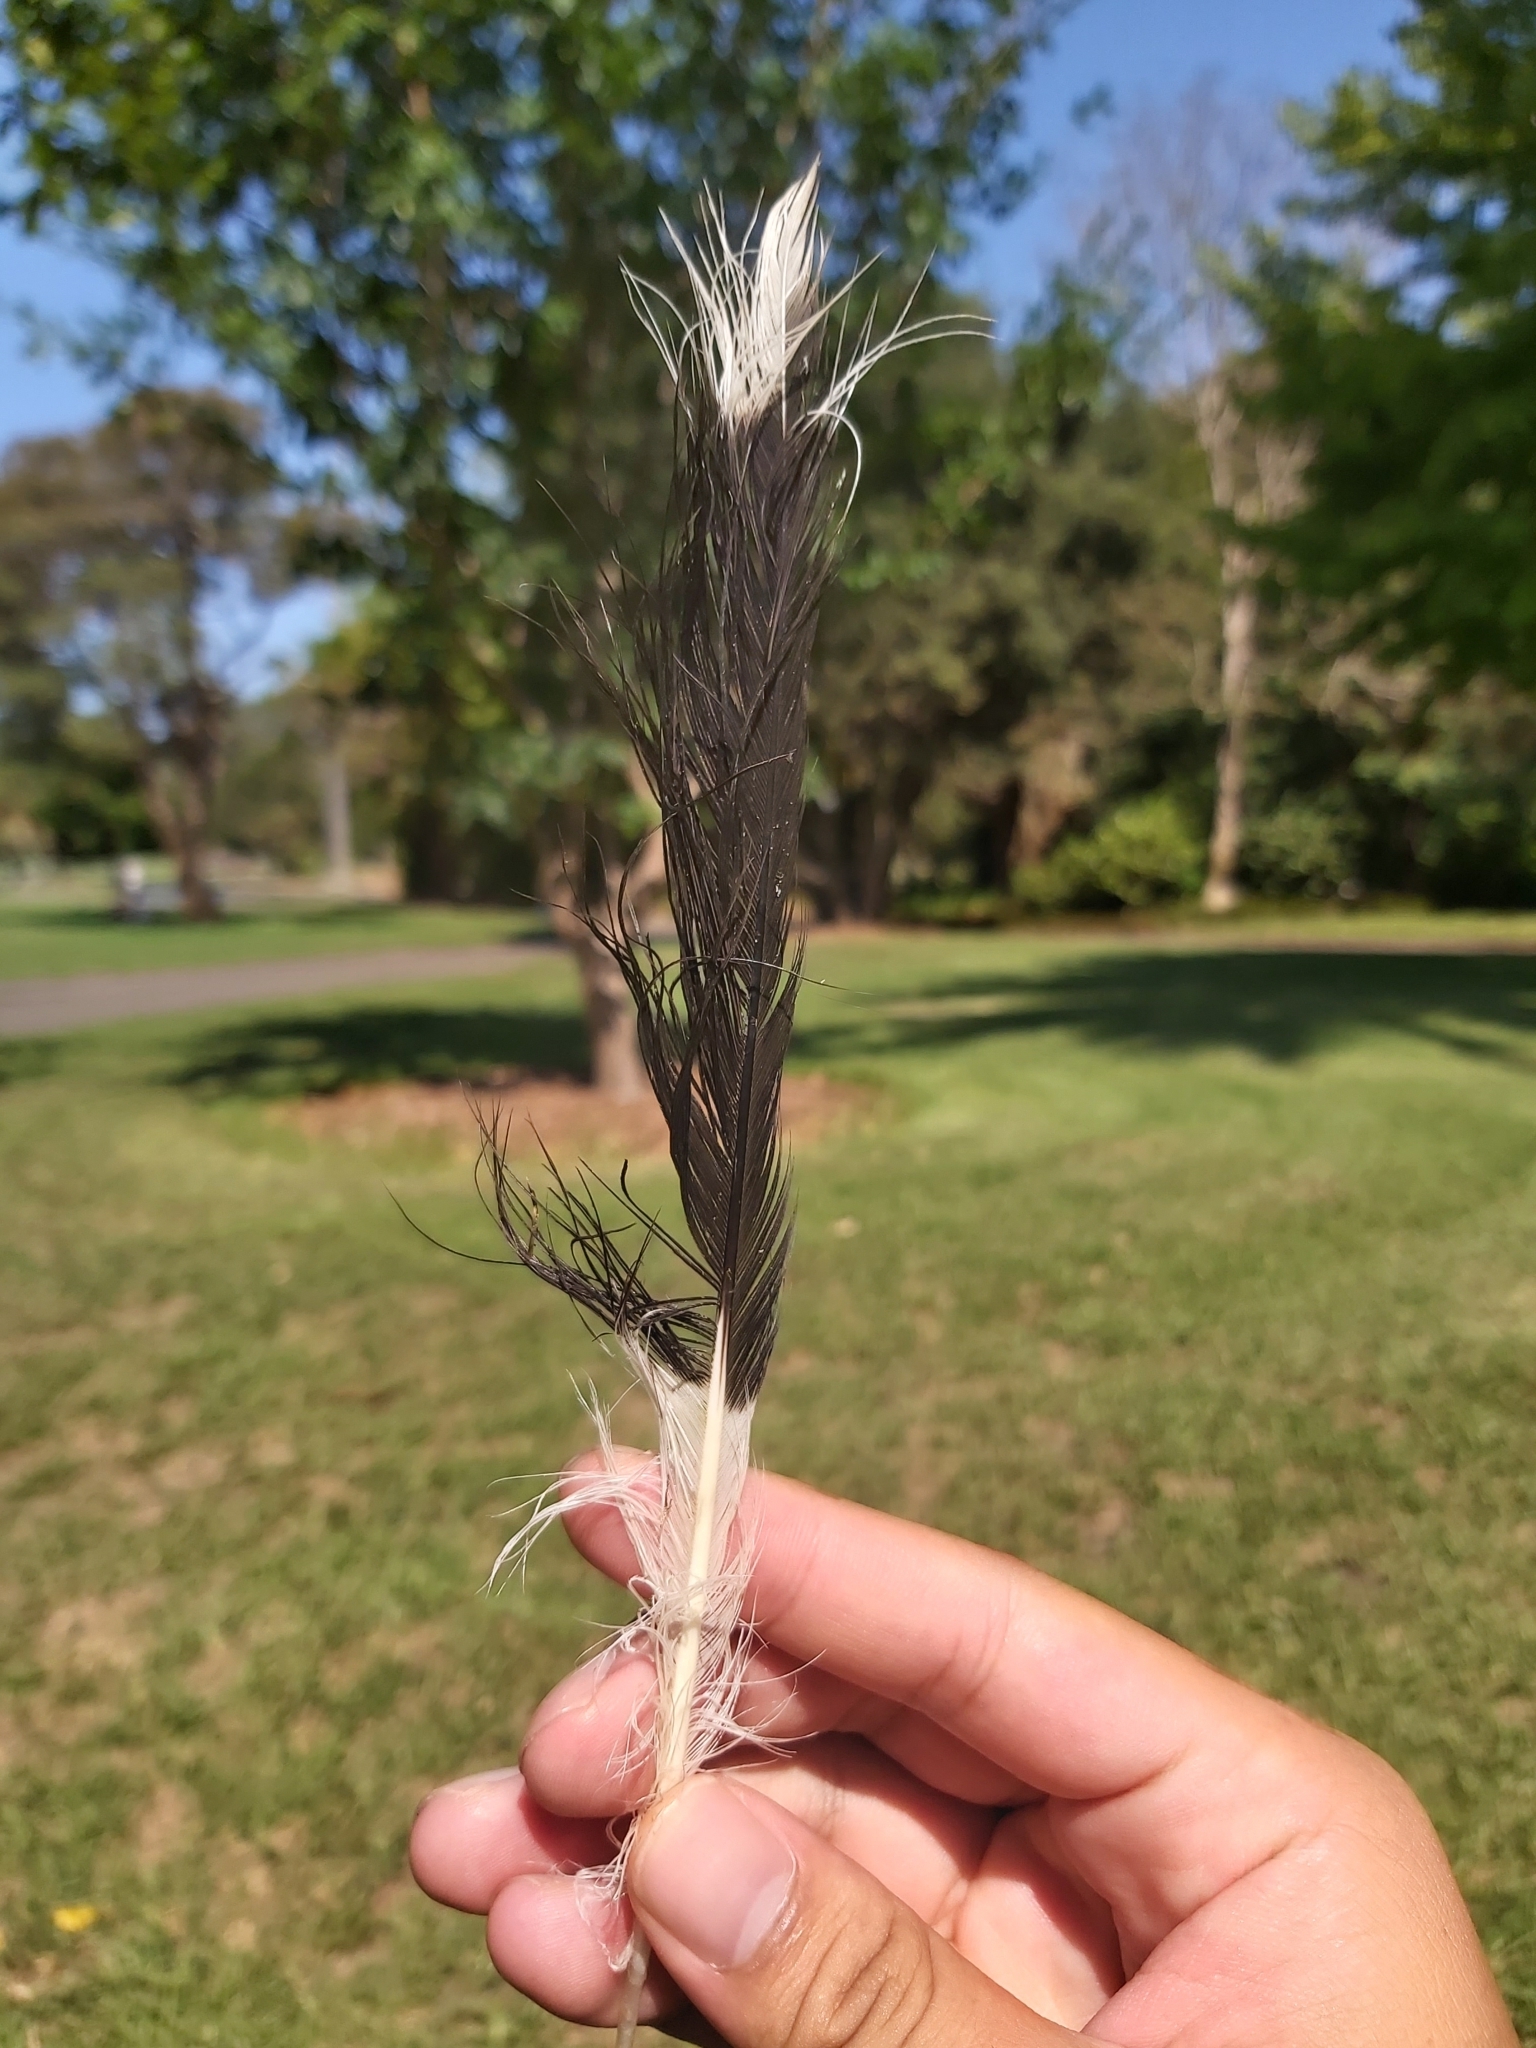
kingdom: Animalia
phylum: Chordata
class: Aves
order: Passeriformes
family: Cracticidae
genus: Strepera
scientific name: Strepera graculina
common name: Pied currawong
